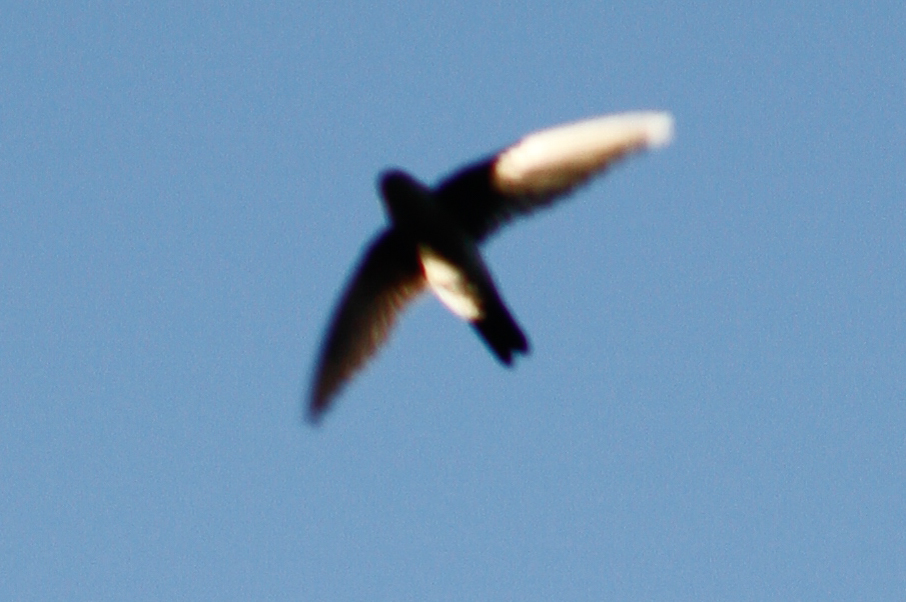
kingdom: Animalia
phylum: Chordata
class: Aves
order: Apodiformes
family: Apodidae
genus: Aerodramus
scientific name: Aerodramus terraereginae
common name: Australian swiftlet
